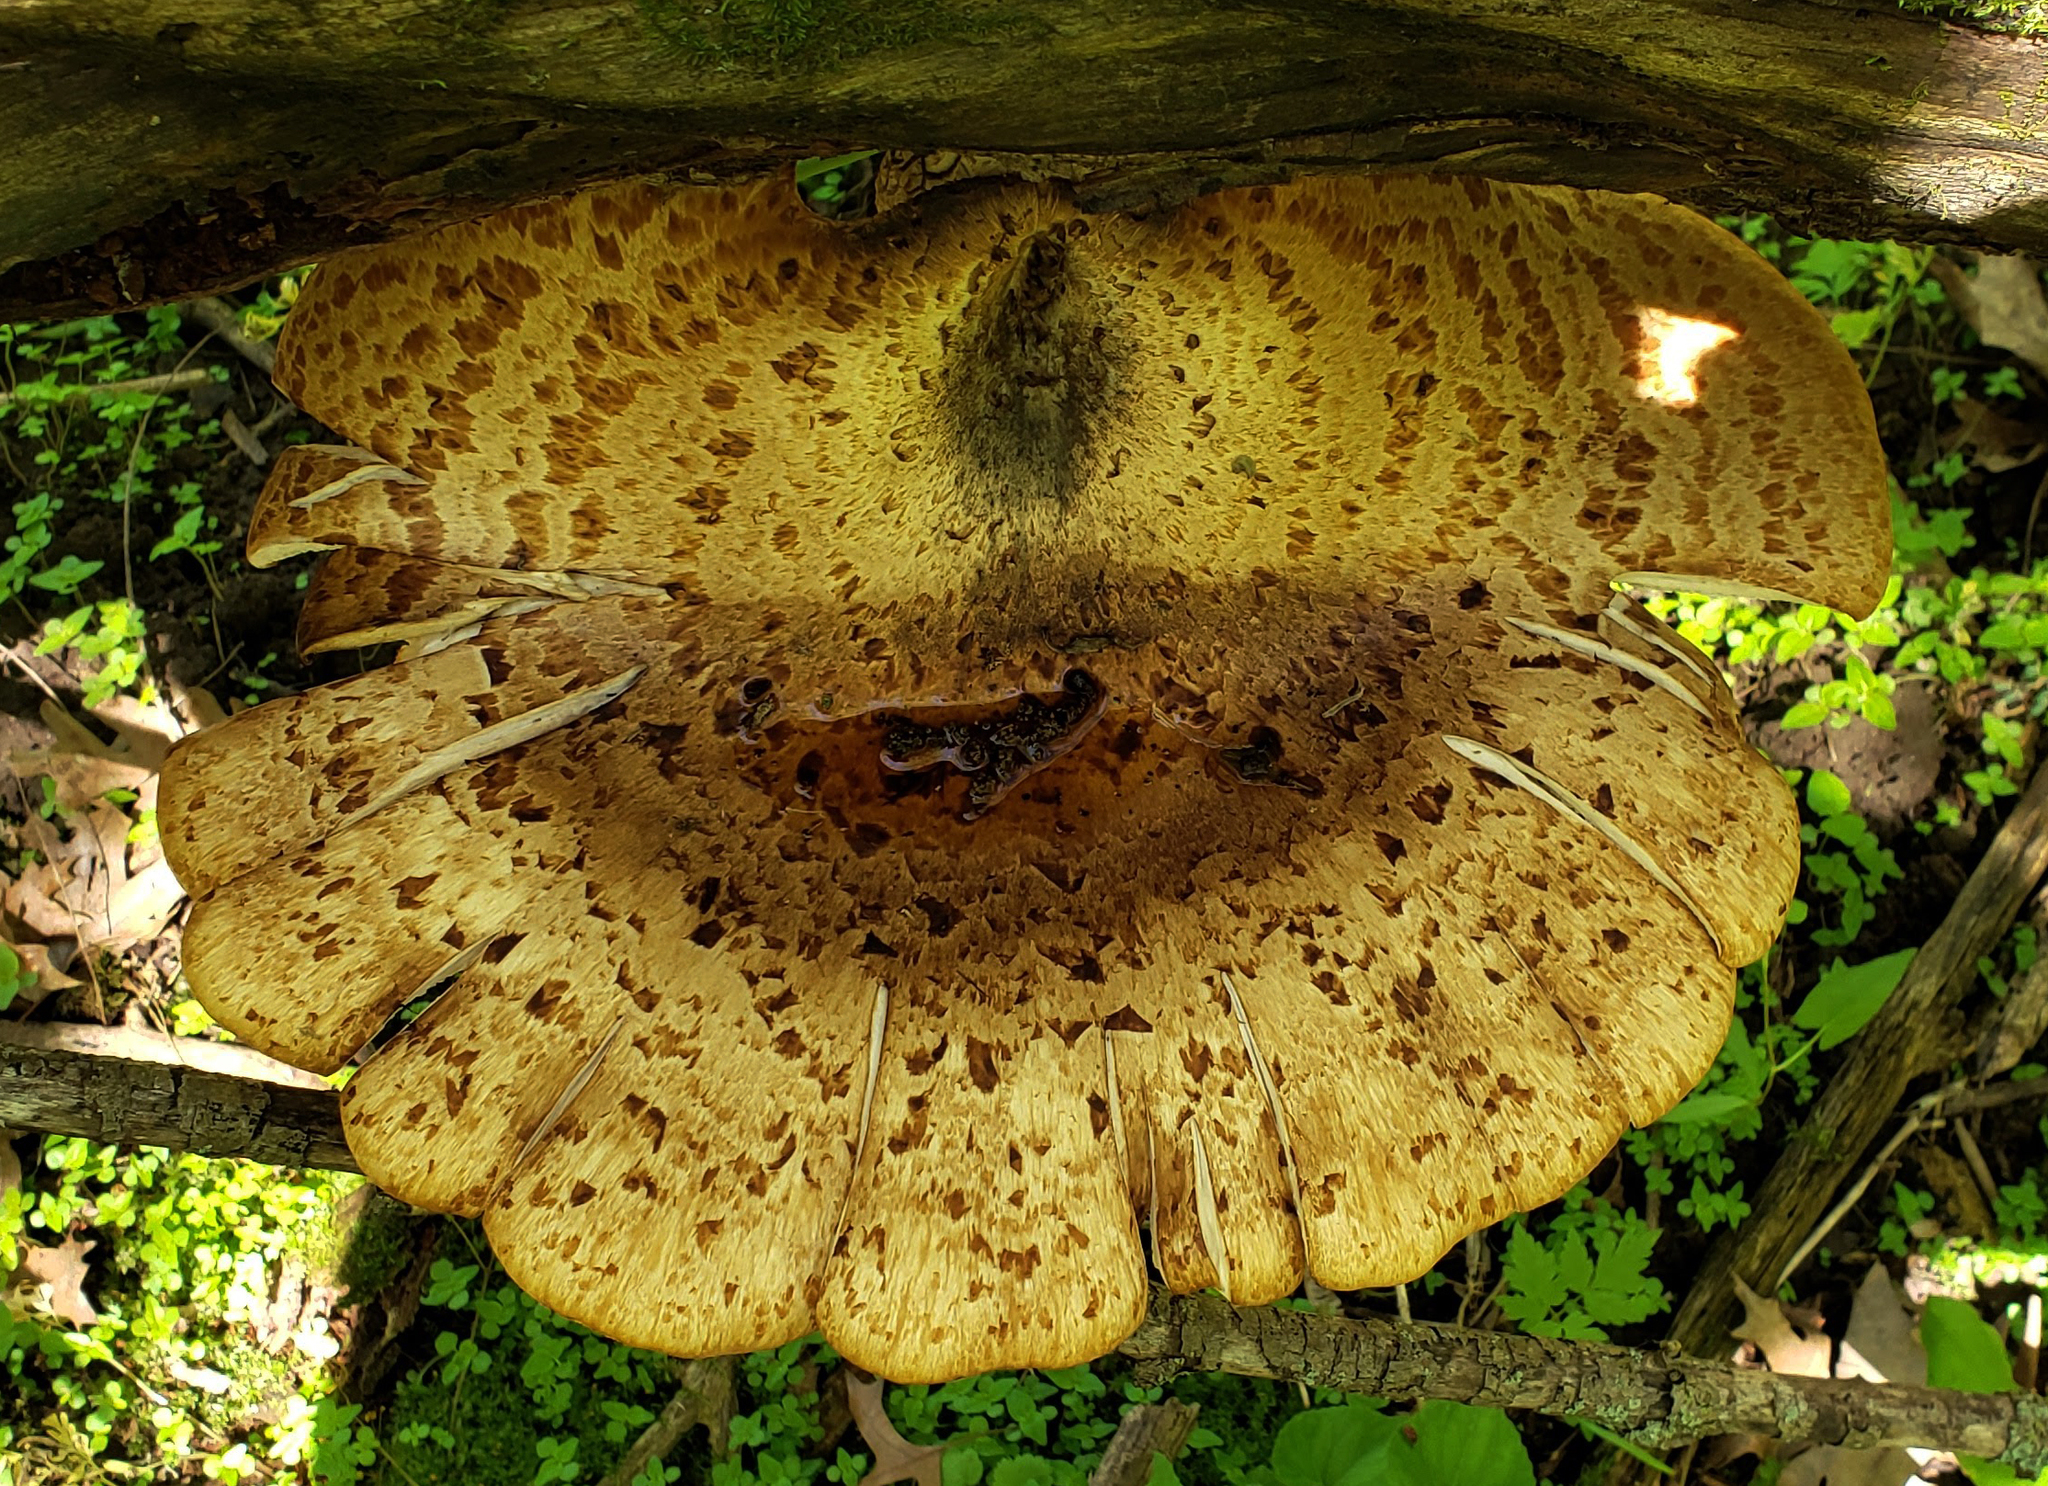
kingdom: Fungi
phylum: Basidiomycota
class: Agaricomycetes
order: Polyporales
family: Polyporaceae
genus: Cerioporus
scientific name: Cerioporus squamosus
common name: Dryad's saddle
